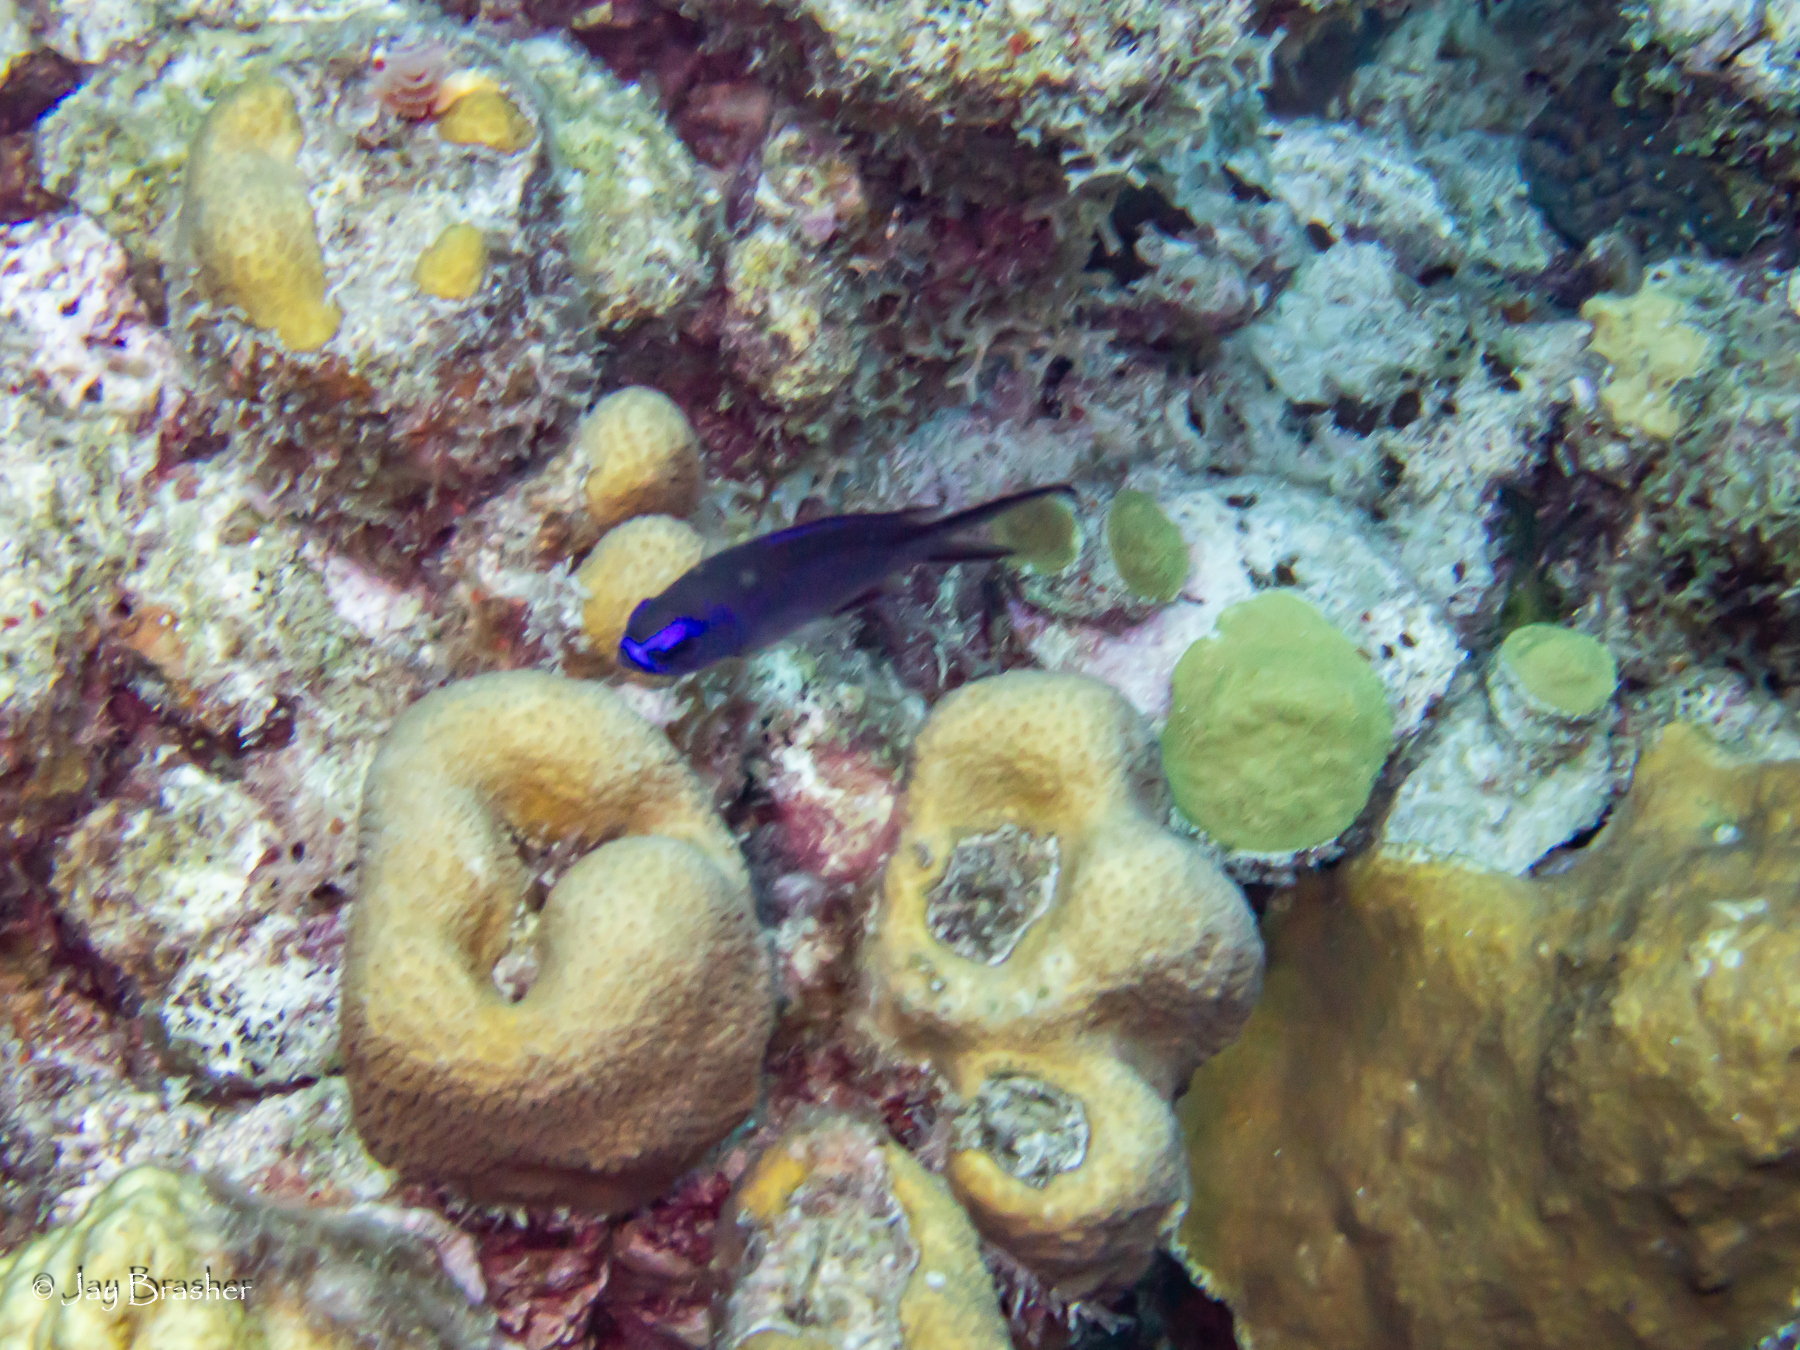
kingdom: Animalia
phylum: Chordata
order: Perciformes
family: Pomacentridae
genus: Chromis
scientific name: Chromis cyanea
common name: Blue chromis
